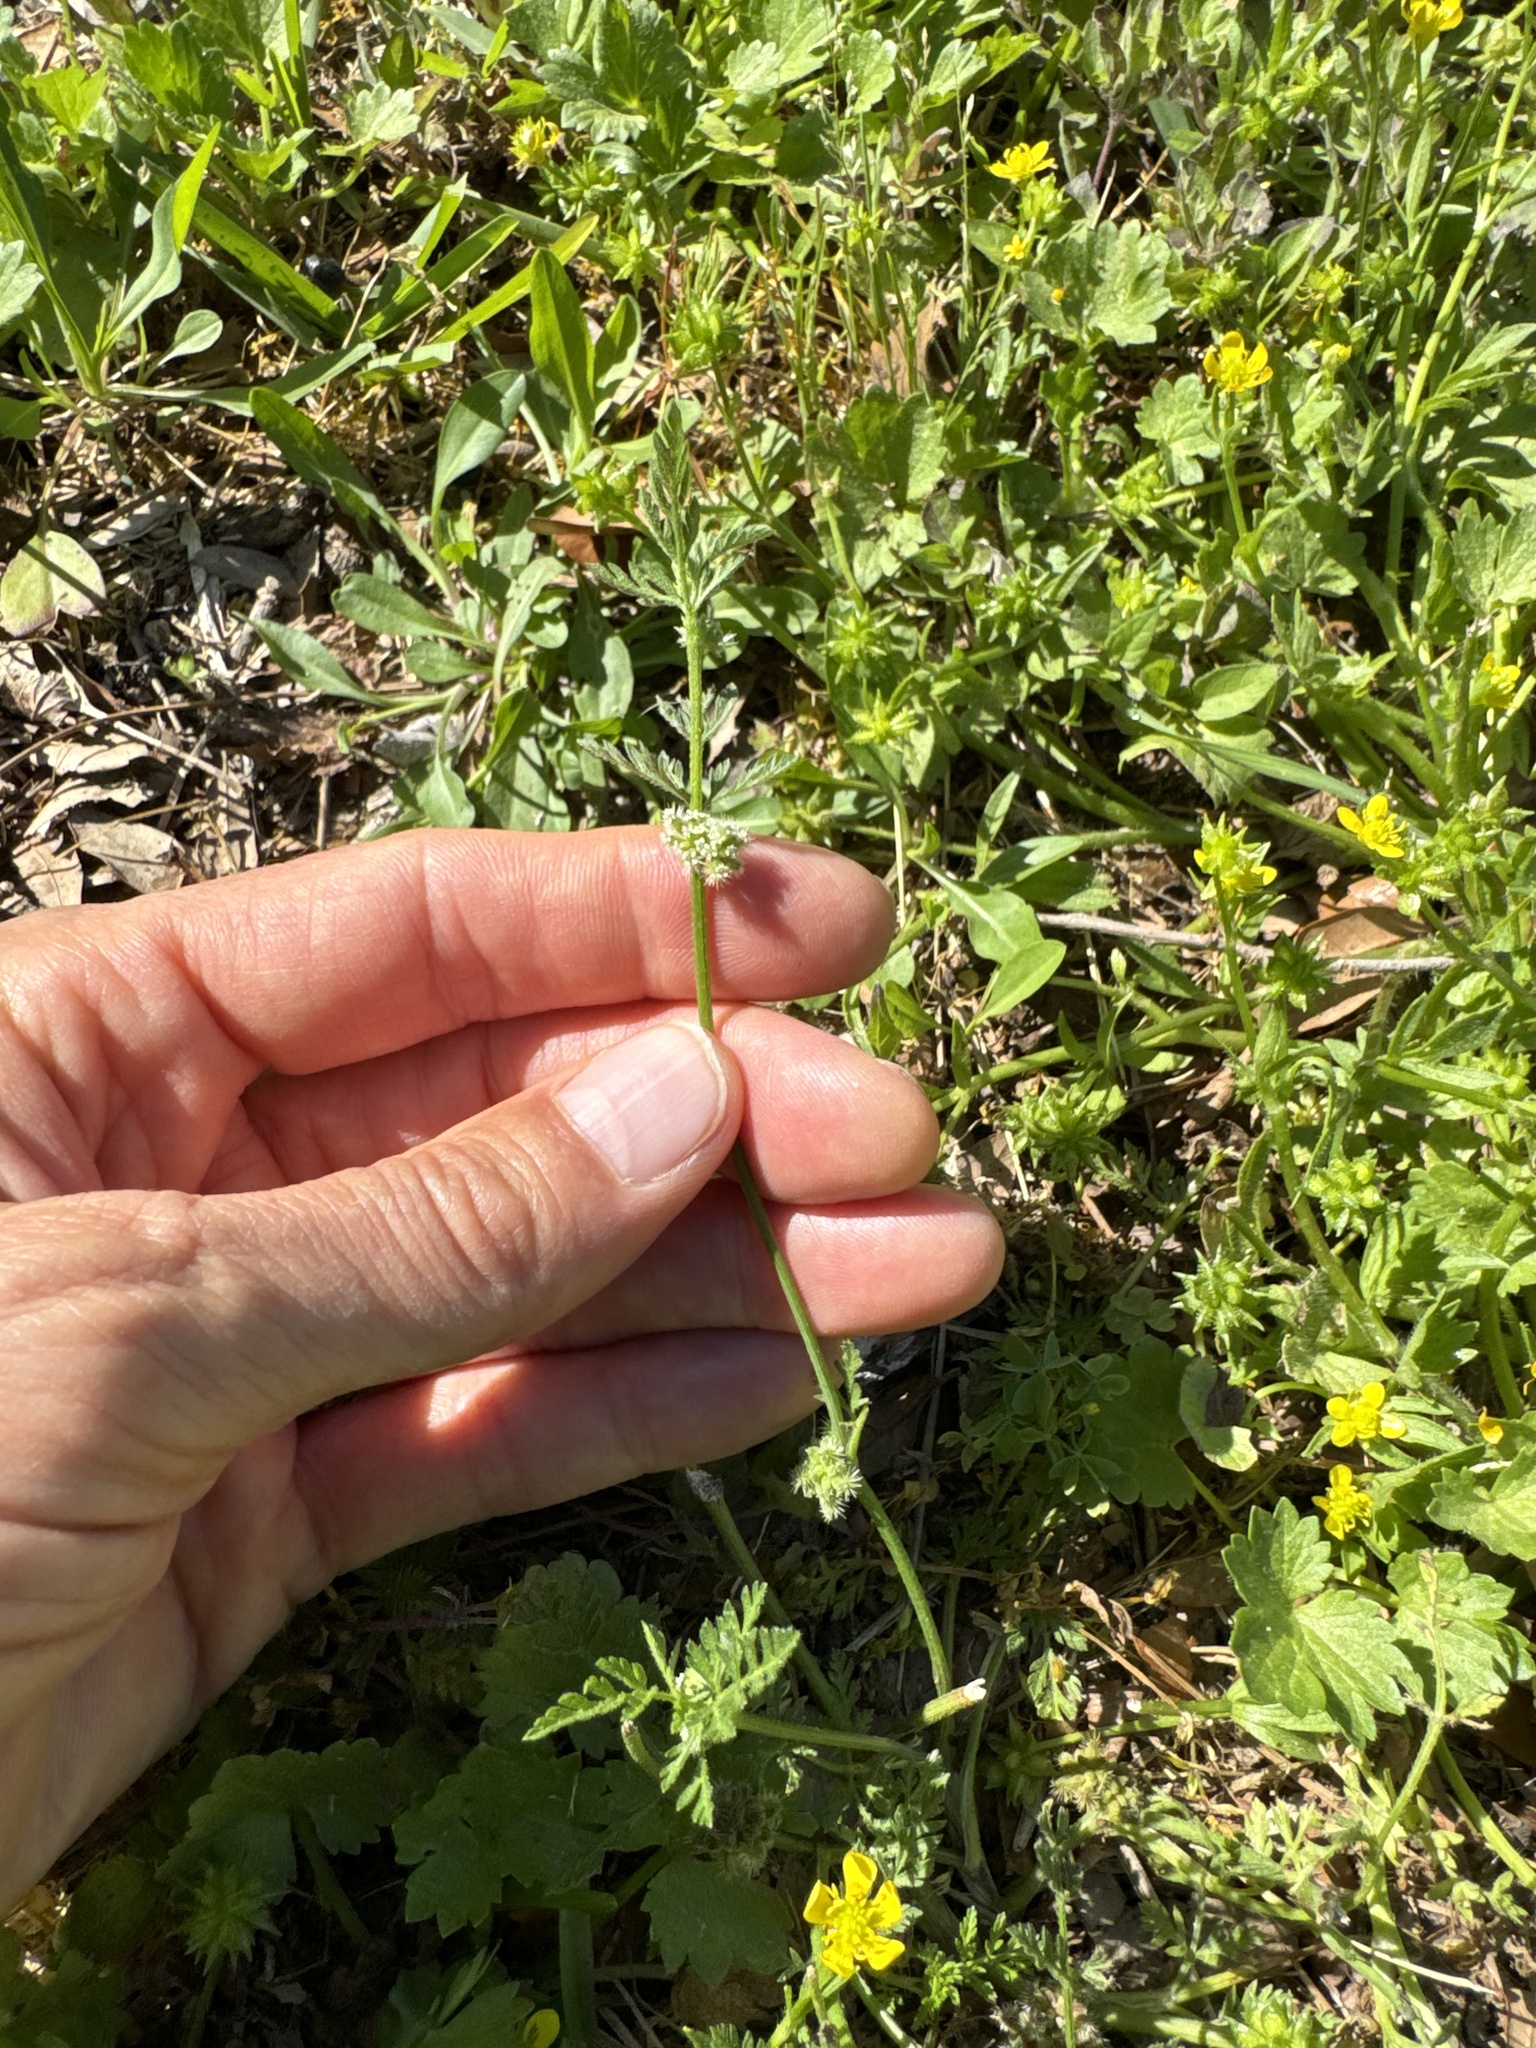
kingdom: Plantae
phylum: Tracheophyta
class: Magnoliopsida
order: Apiales
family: Apiaceae
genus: Torilis
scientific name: Torilis nodosa
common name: Knotted hedge-parsley
